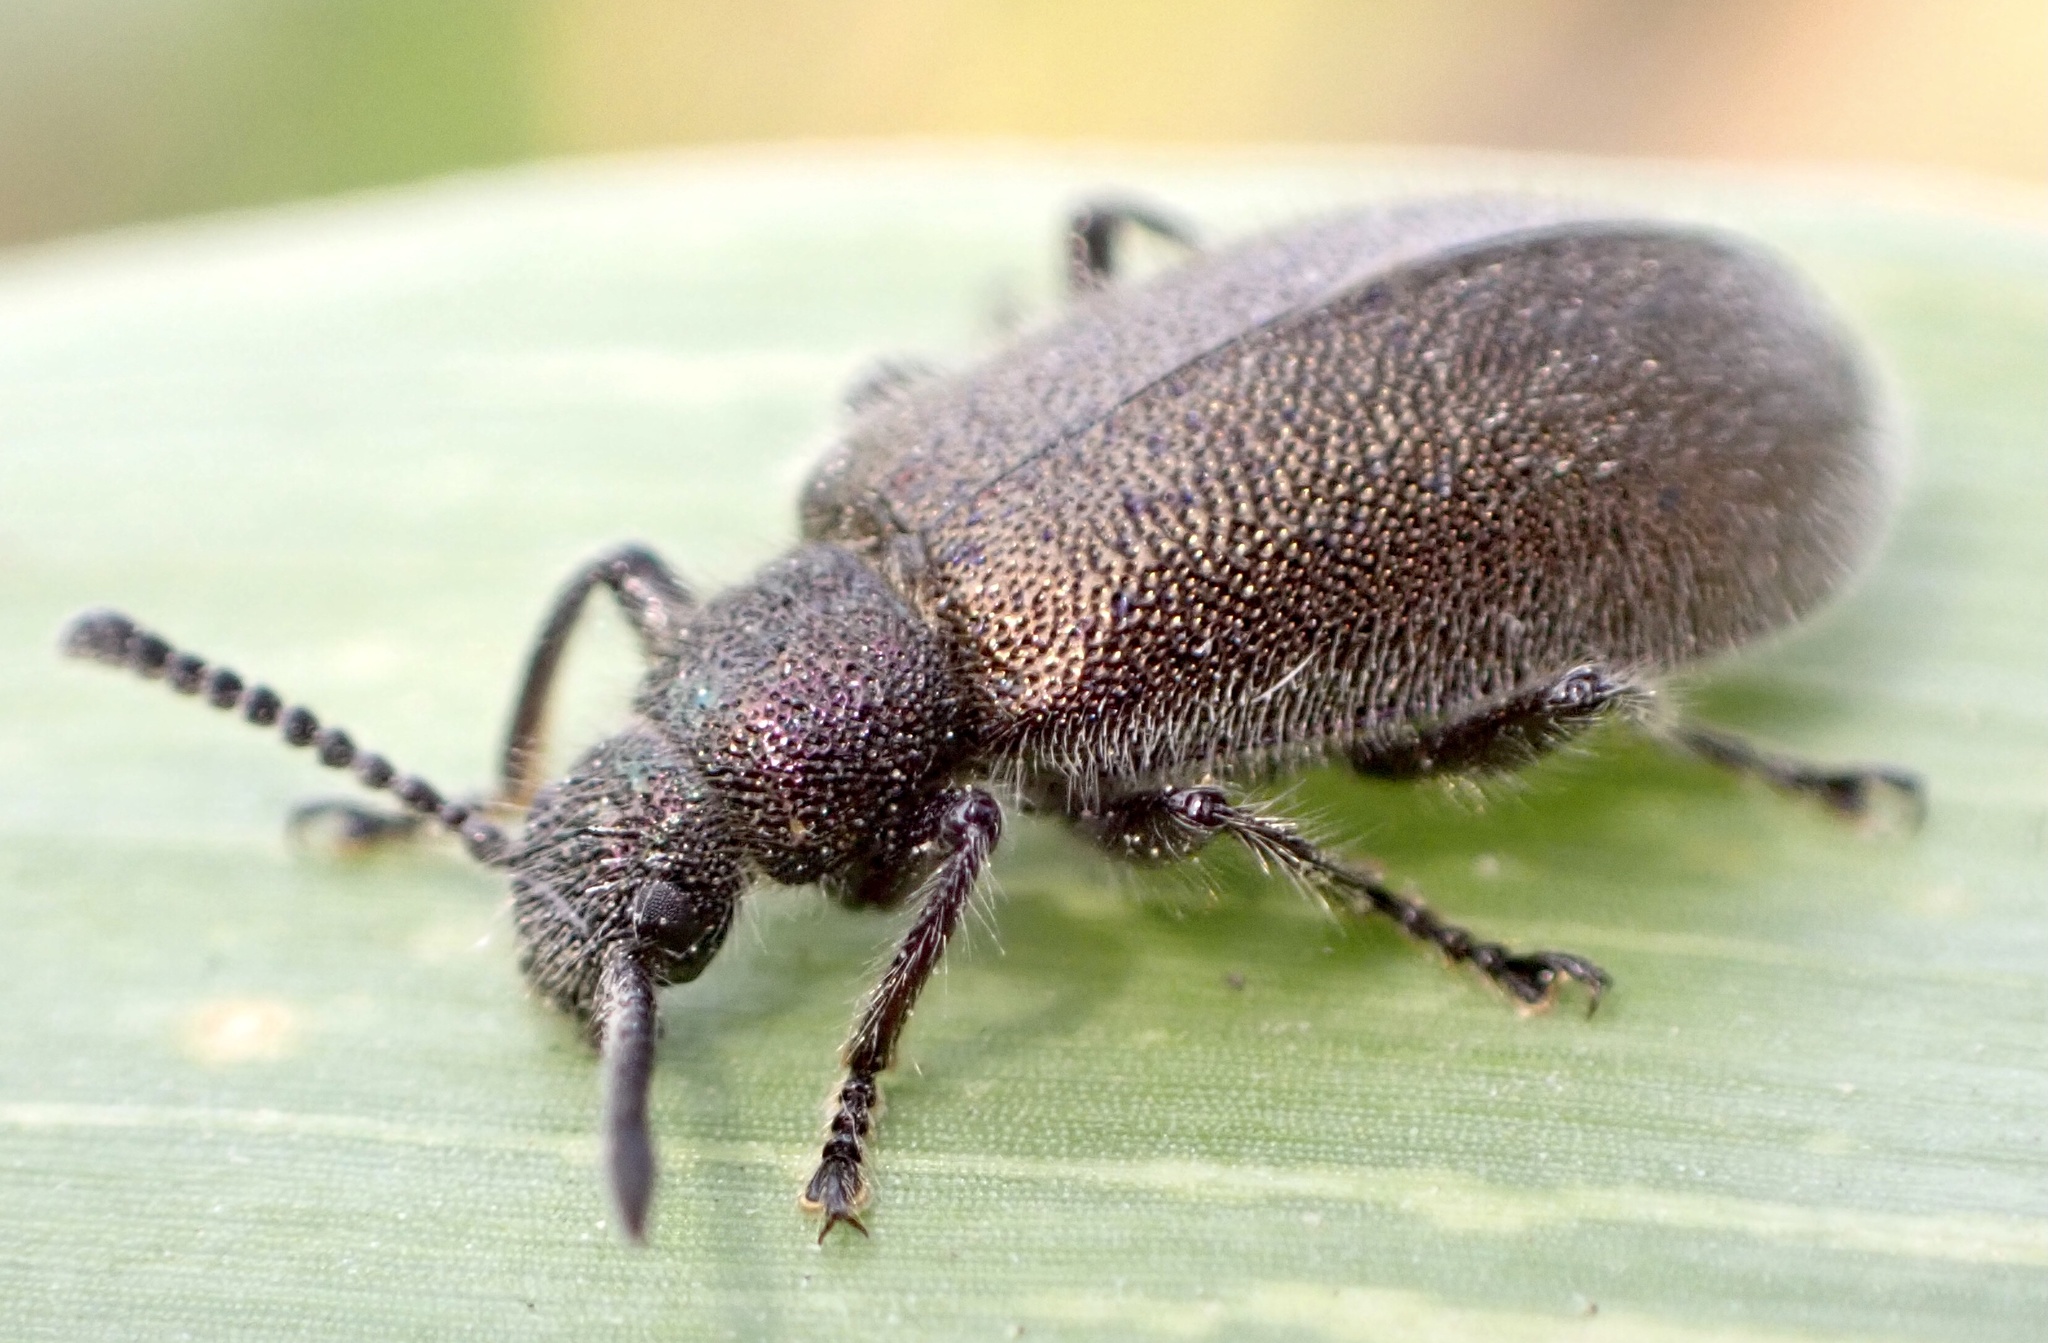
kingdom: Animalia
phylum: Arthropoda
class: Insecta
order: Coleoptera
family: Tenebrionidae
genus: Lagria
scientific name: Lagria villosa
